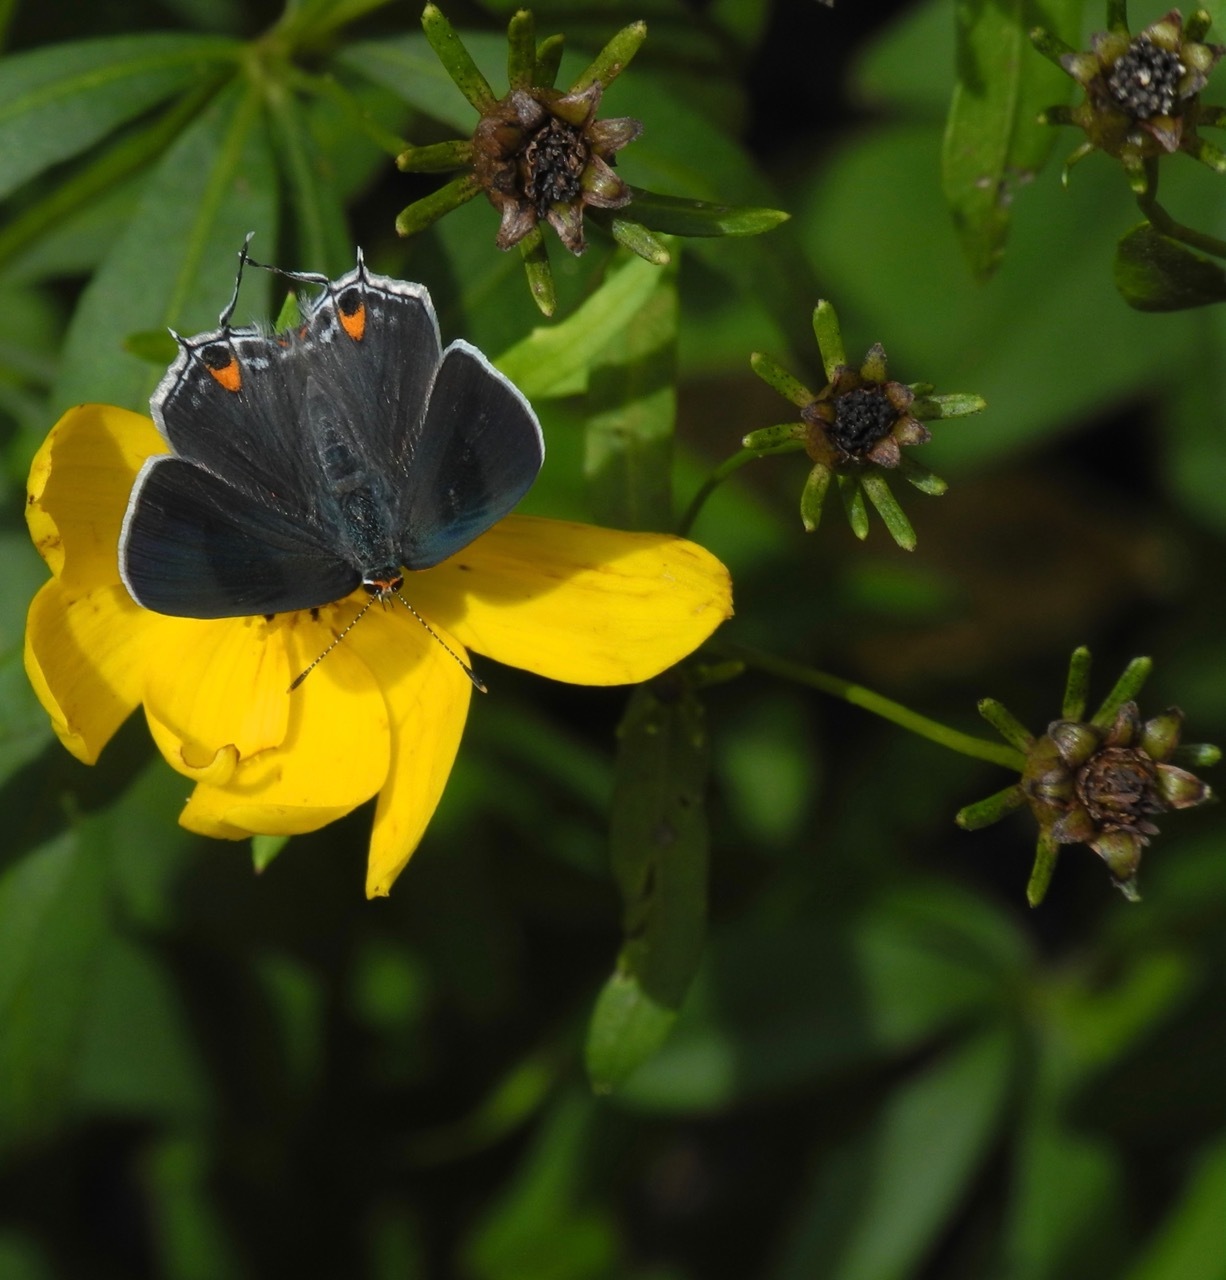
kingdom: Animalia
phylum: Arthropoda
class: Insecta
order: Lepidoptera
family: Lycaenidae
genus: Strymon
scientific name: Strymon melinus
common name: Gray hairstreak
